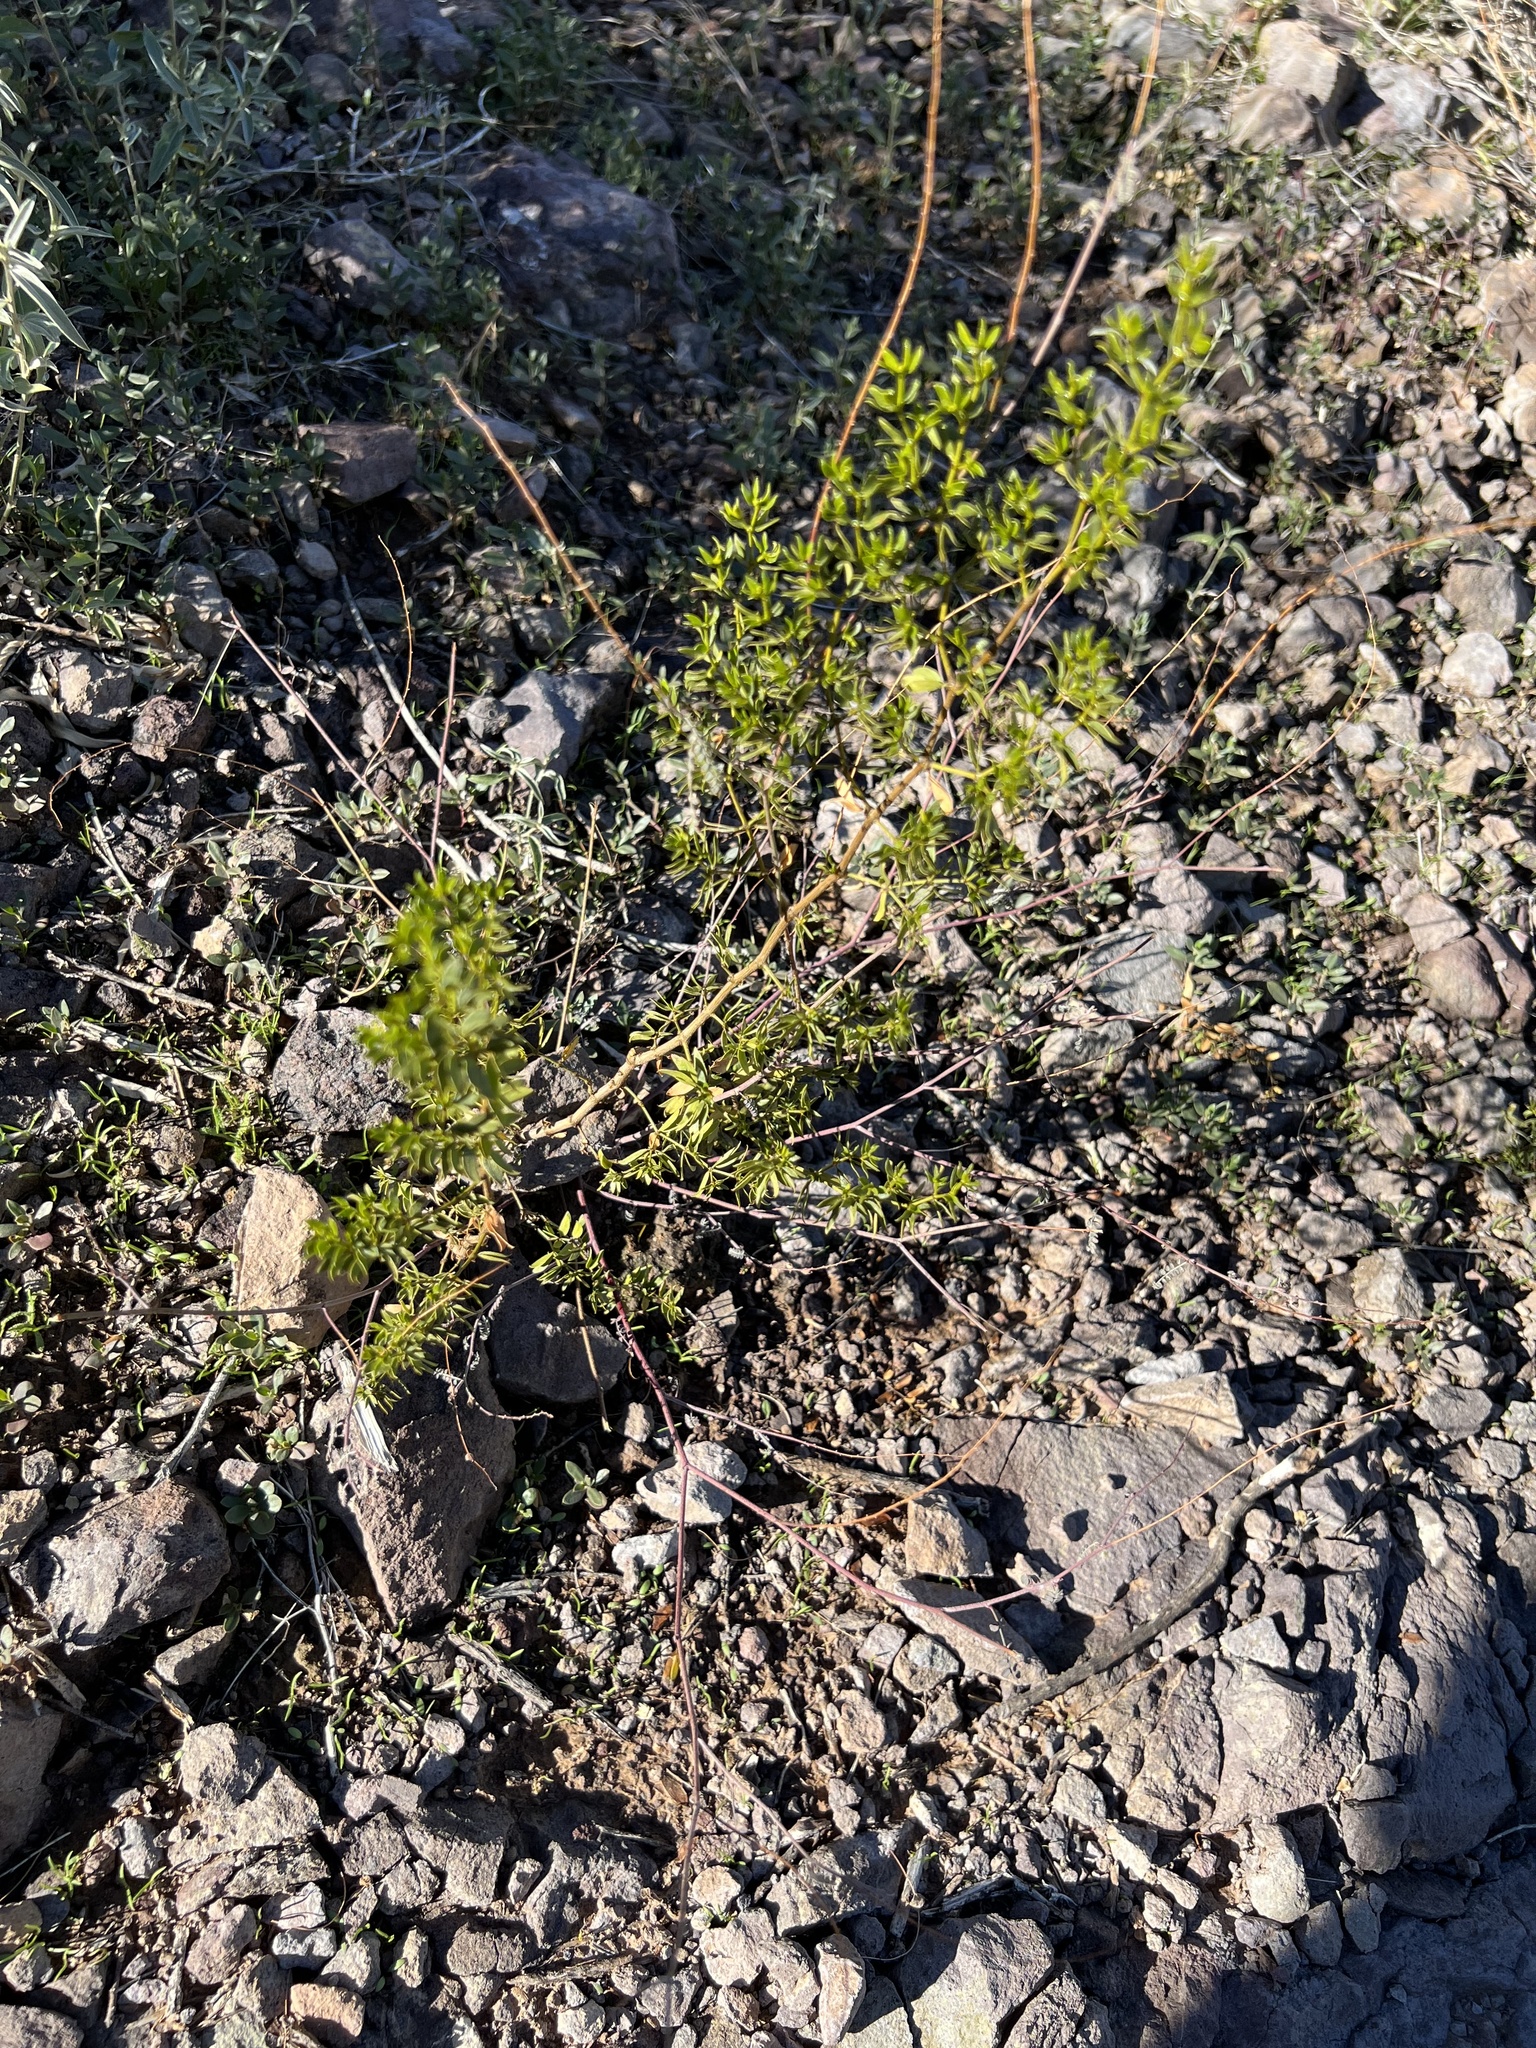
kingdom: Plantae
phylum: Tracheophyta
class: Magnoliopsida
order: Zygophyllales
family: Zygophyllaceae
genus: Larrea
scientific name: Larrea tridentata
